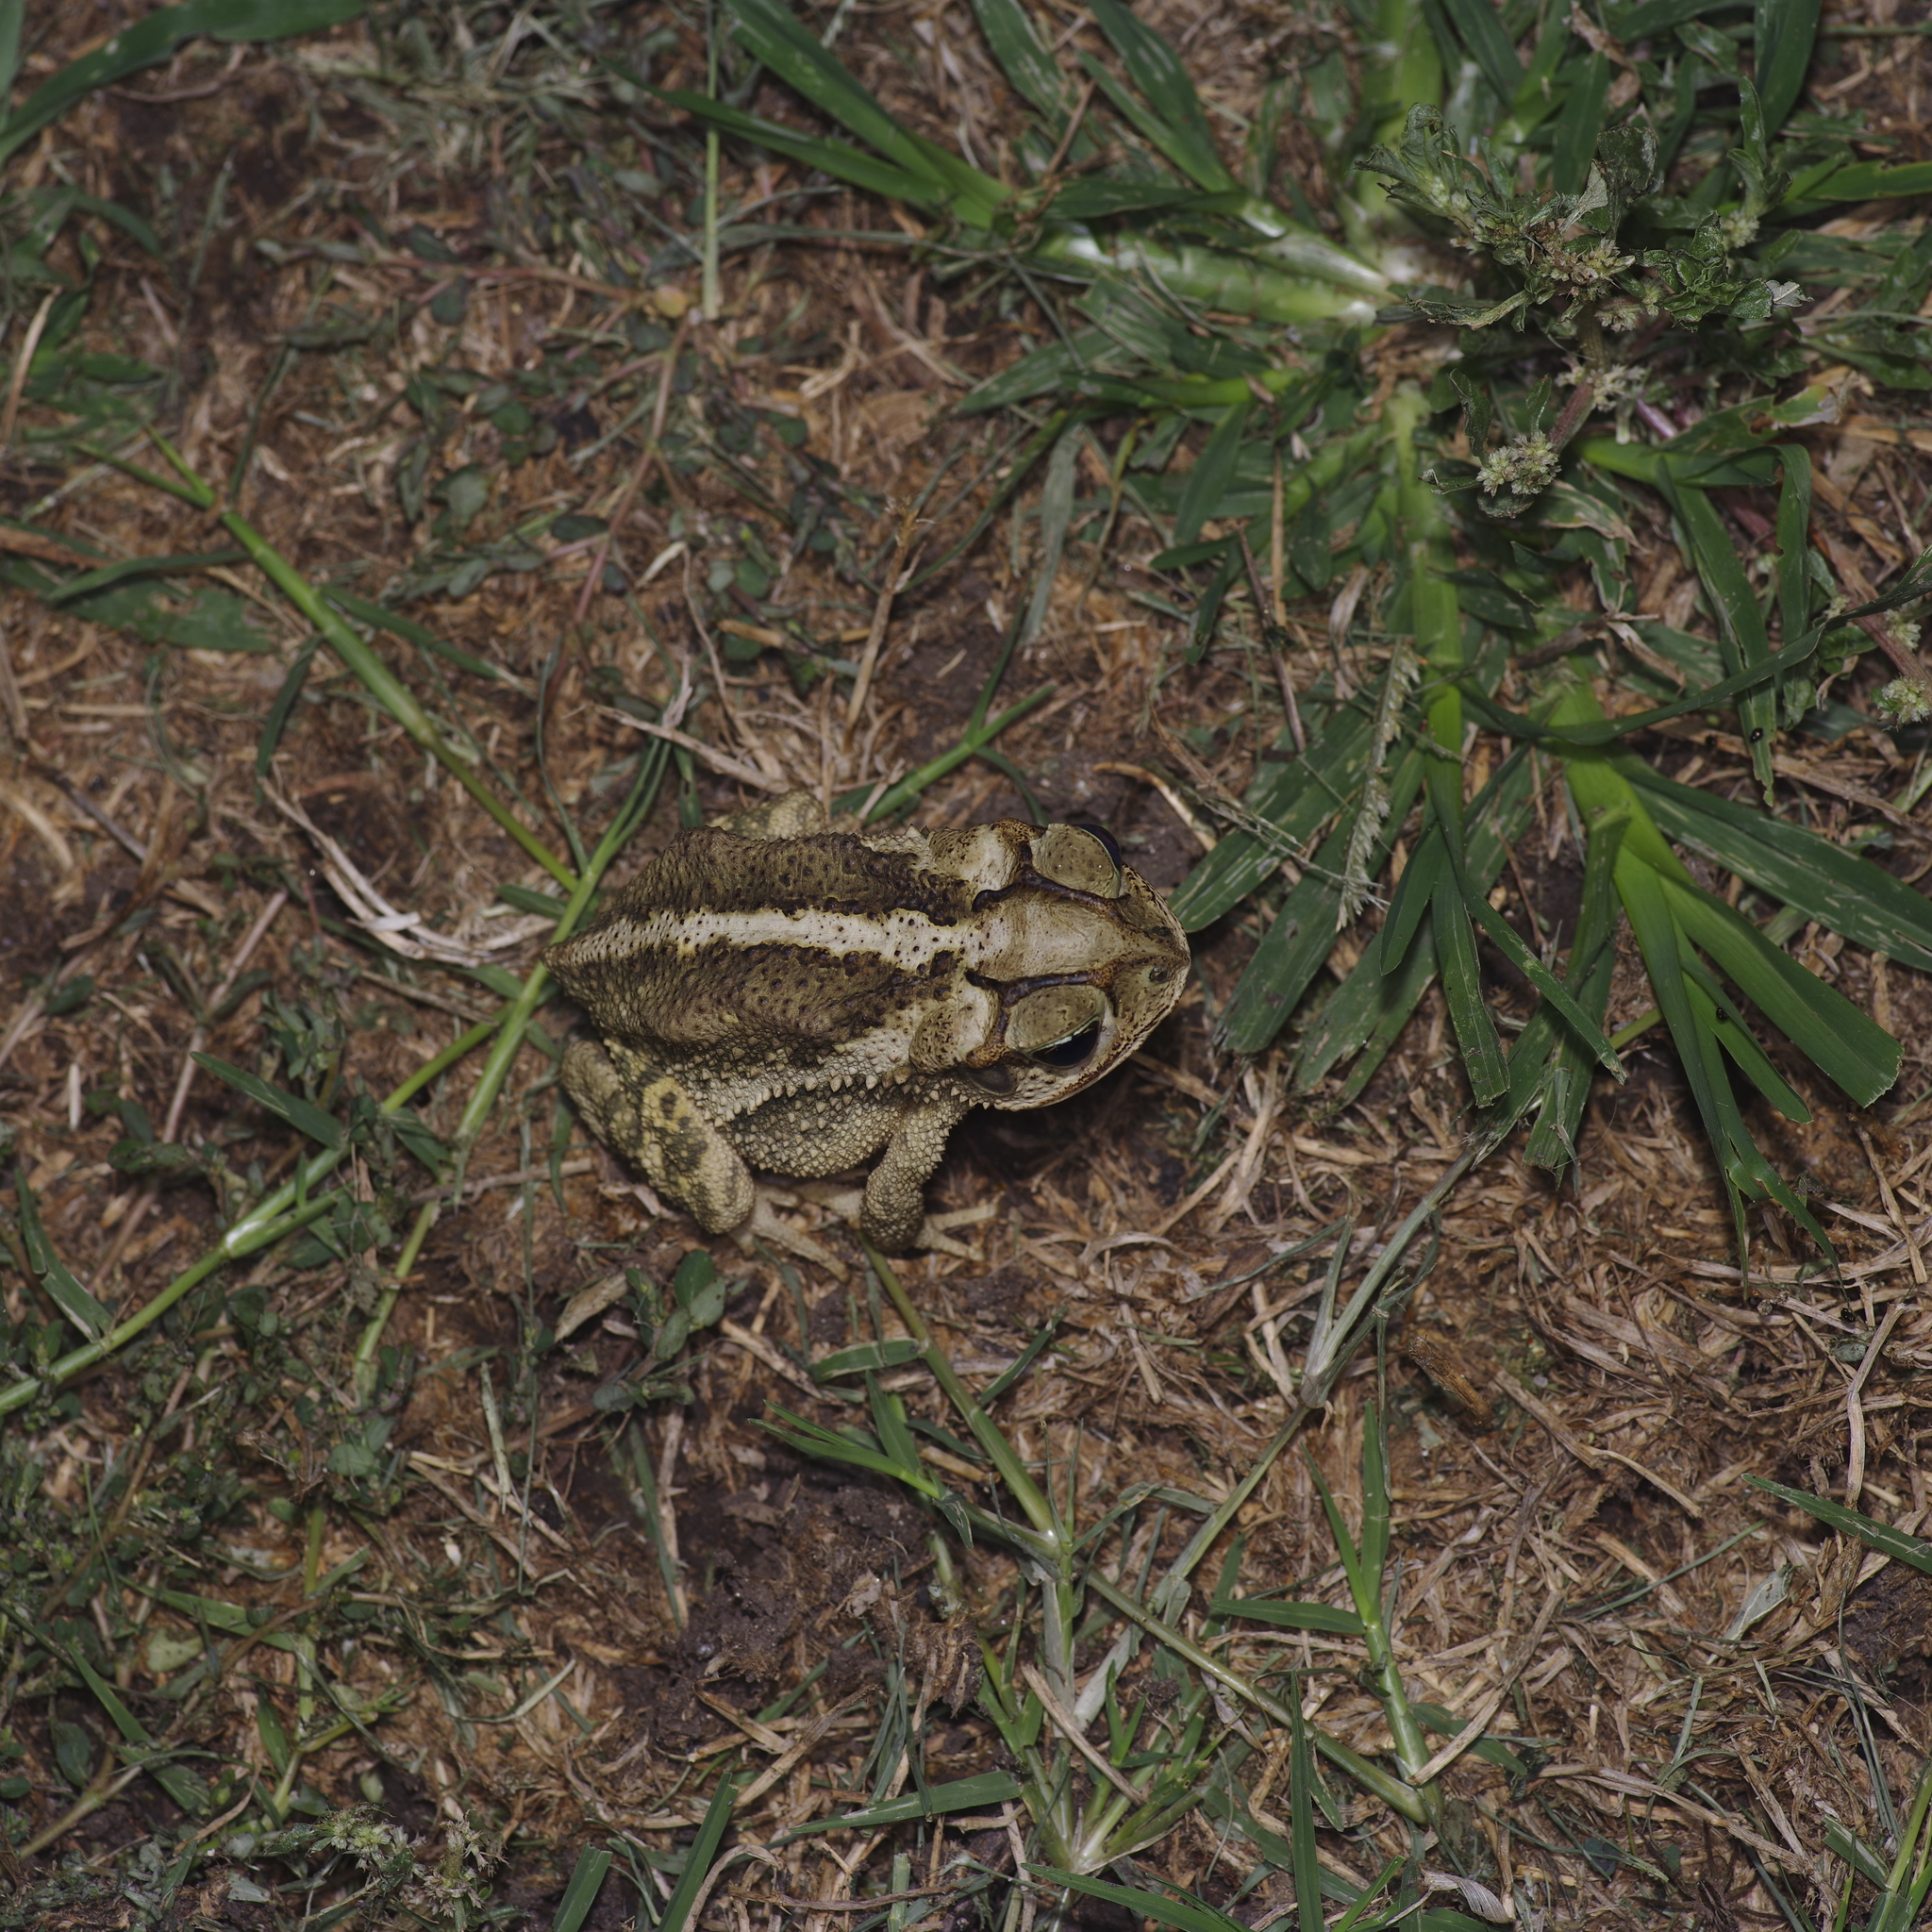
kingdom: Animalia
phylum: Chordata
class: Amphibia
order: Anura
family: Bufonidae
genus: Incilius
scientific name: Incilius nebulifer
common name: Gulf coast toad
